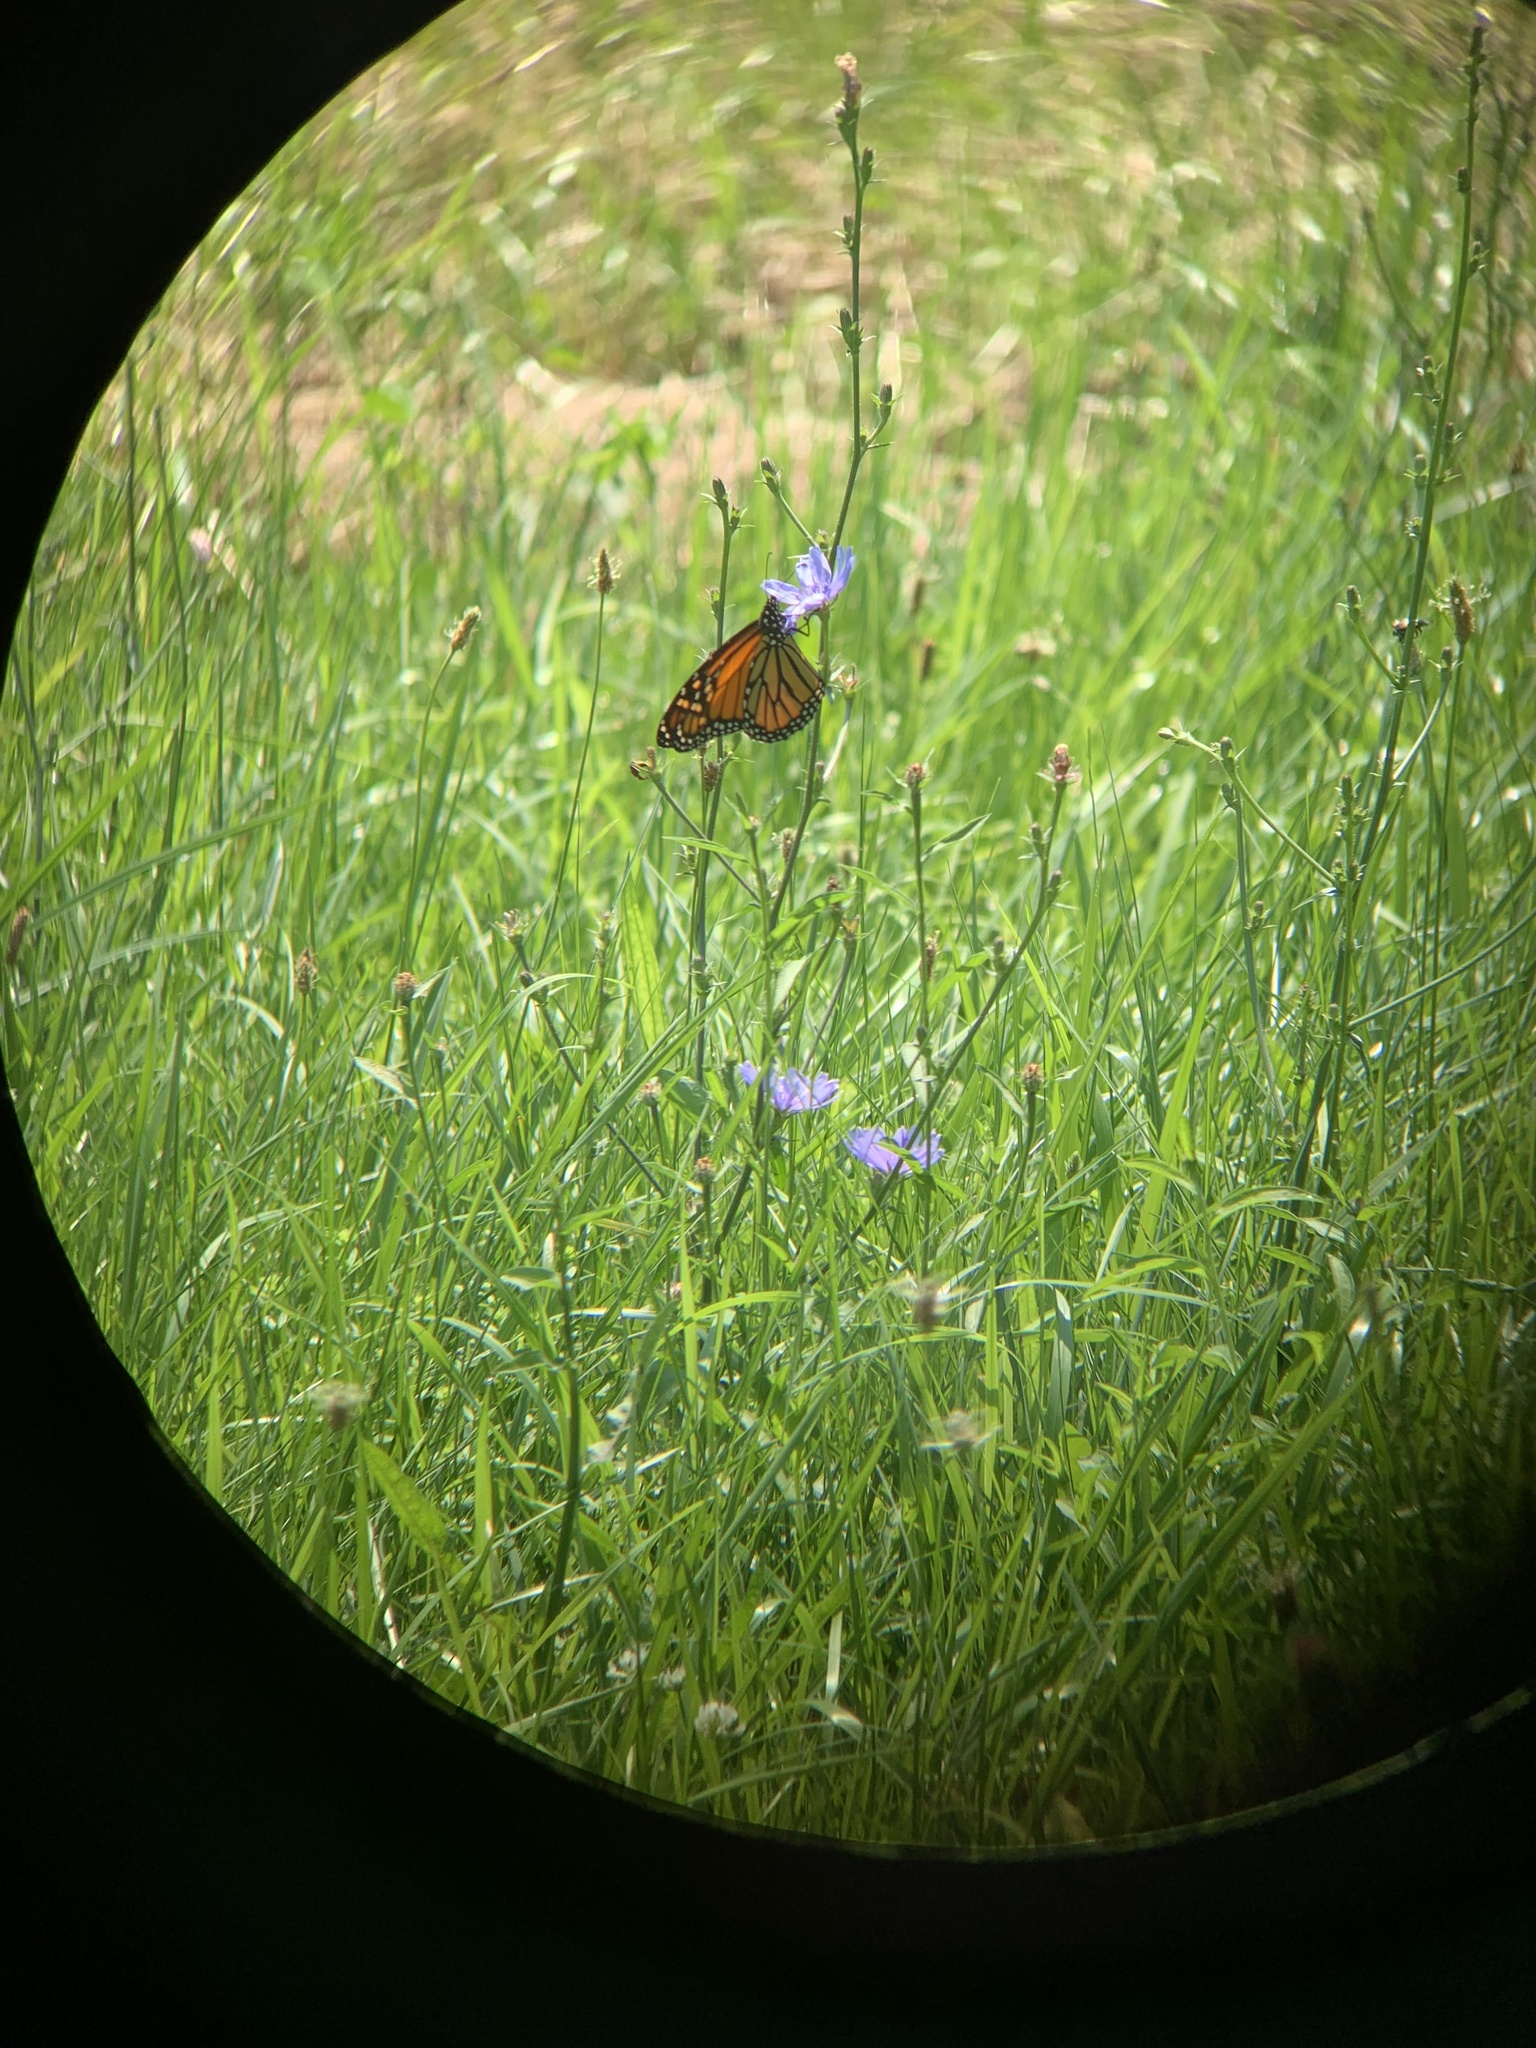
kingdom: Animalia
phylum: Arthropoda
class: Insecta
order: Lepidoptera
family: Nymphalidae
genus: Danaus
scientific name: Danaus plexippus
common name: Monarch
